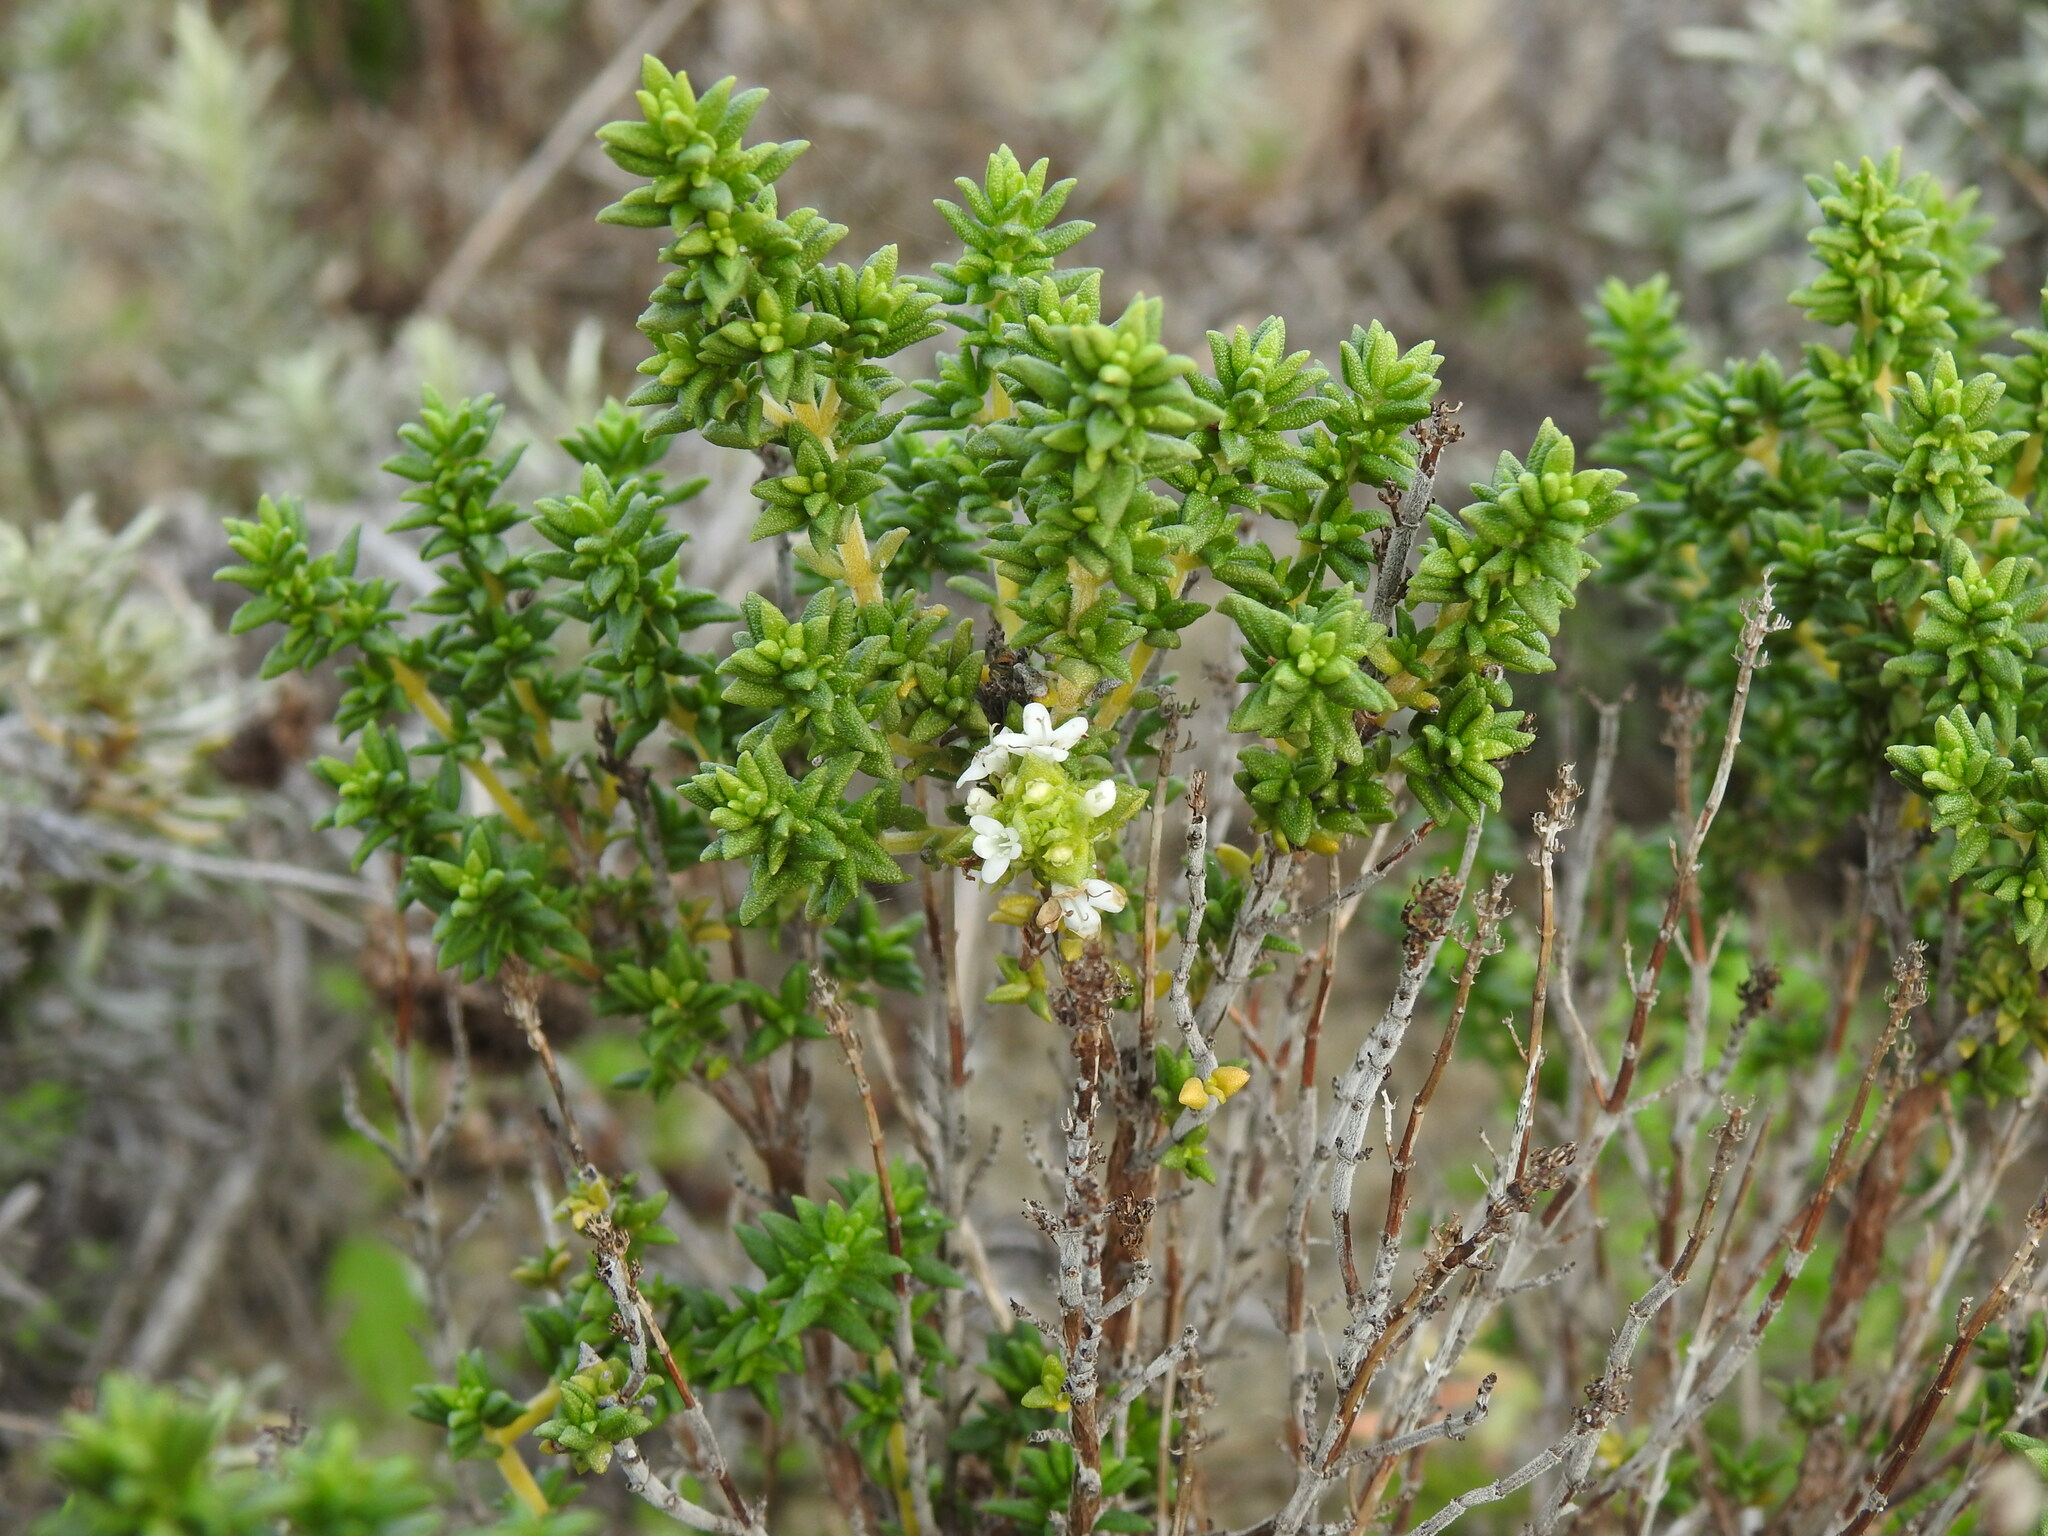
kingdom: Plantae
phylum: Tracheophyta
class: Magnoliopsida
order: Lamiales
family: Lamiaceae
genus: Thymus
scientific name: Thymus carnosus
